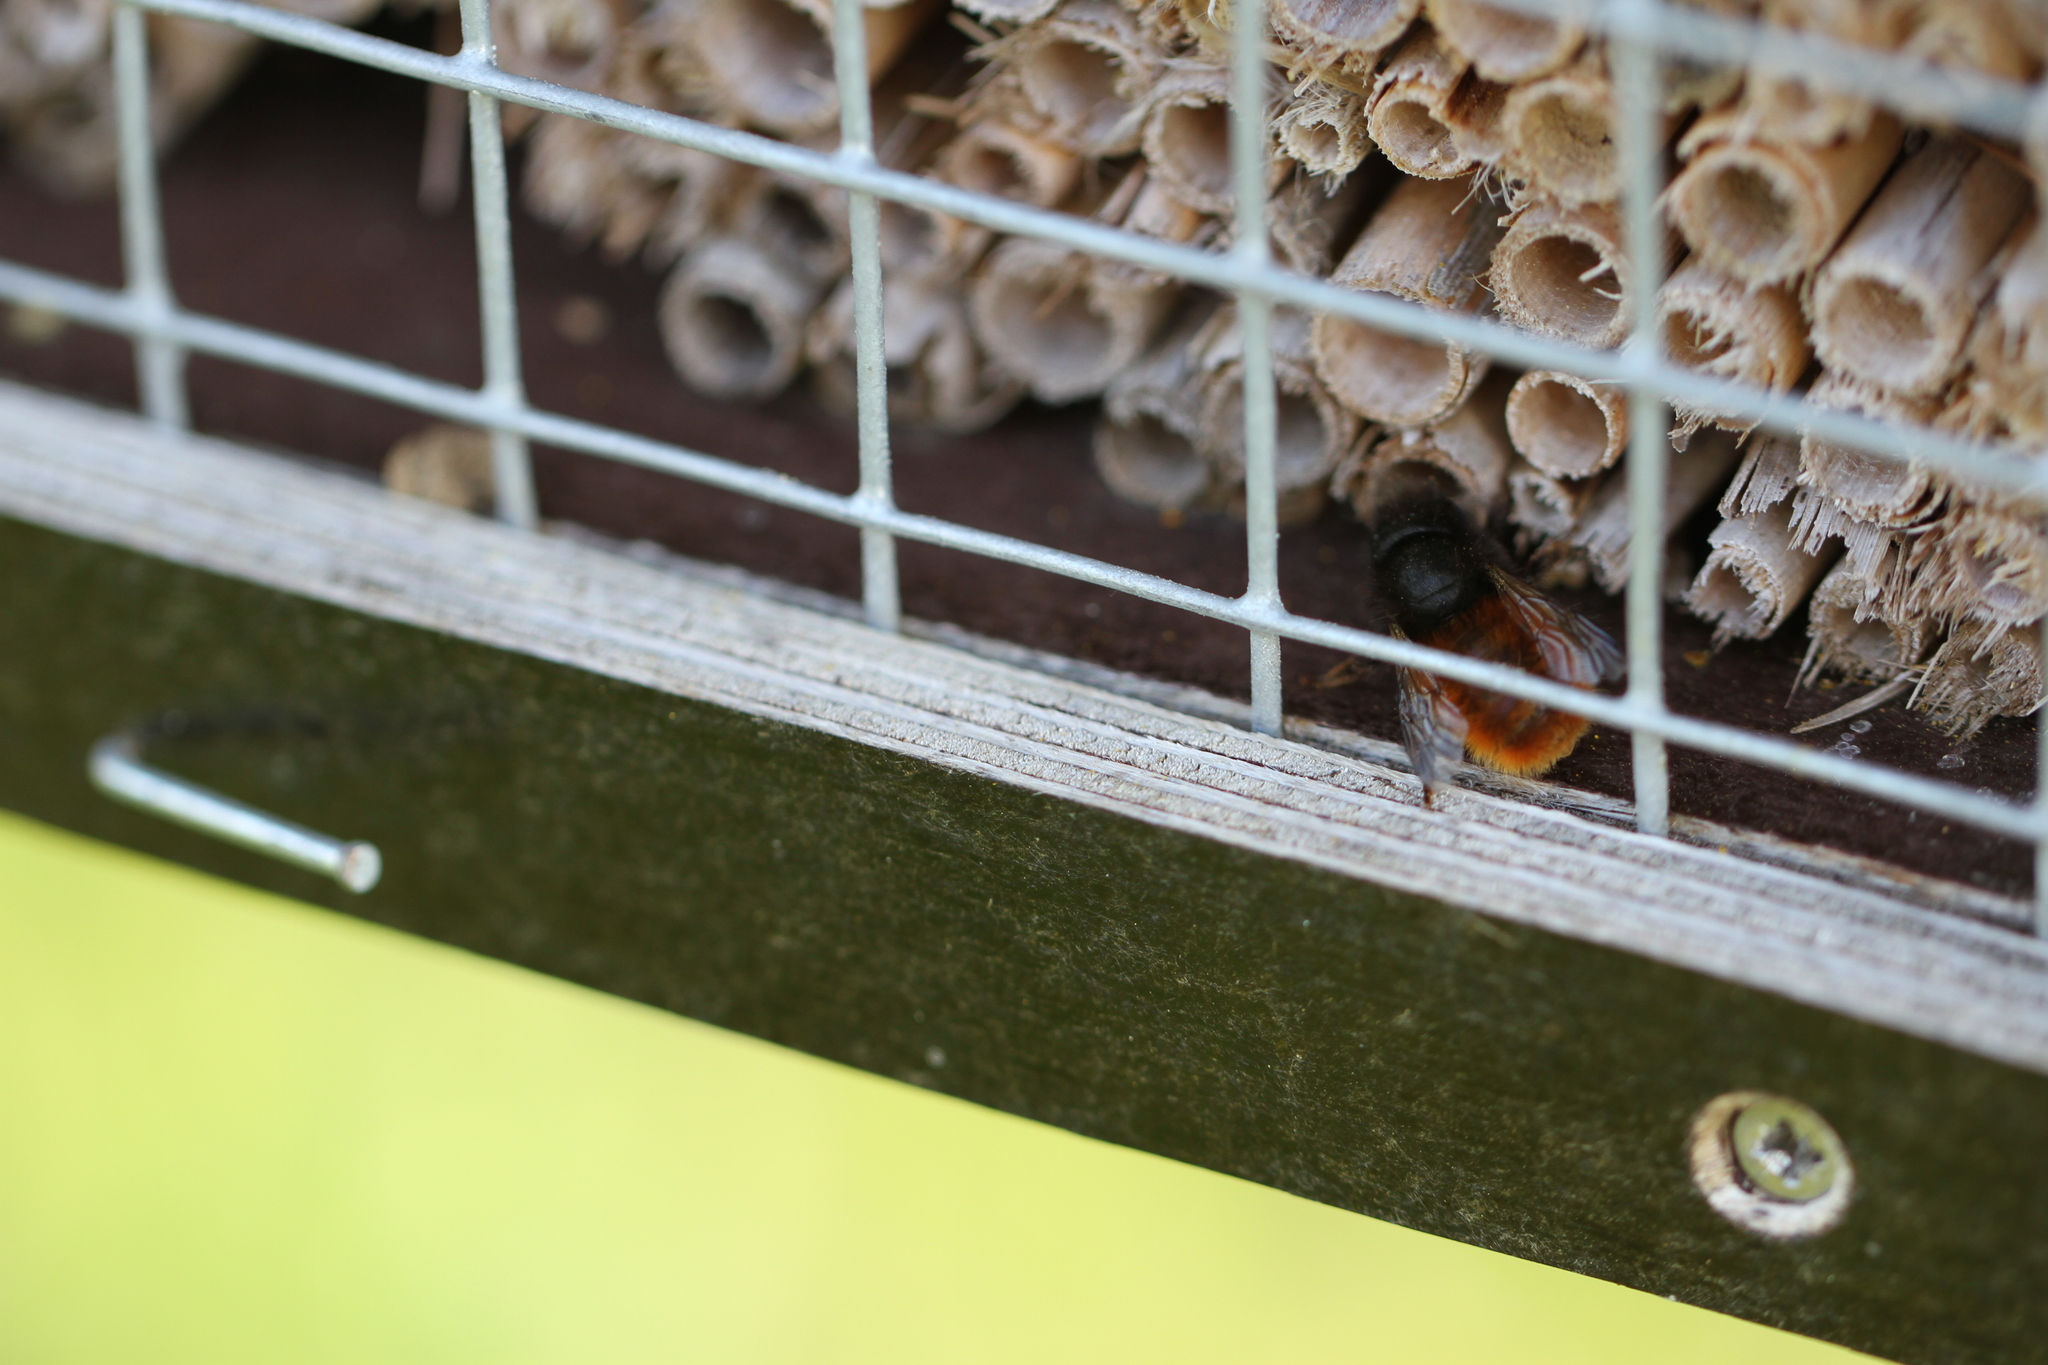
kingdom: Animalia
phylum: Arthropoda
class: Insecta
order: Hymenoptera
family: Megachilidae
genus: Osmia
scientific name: Osmia cornuta
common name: Mason bee
